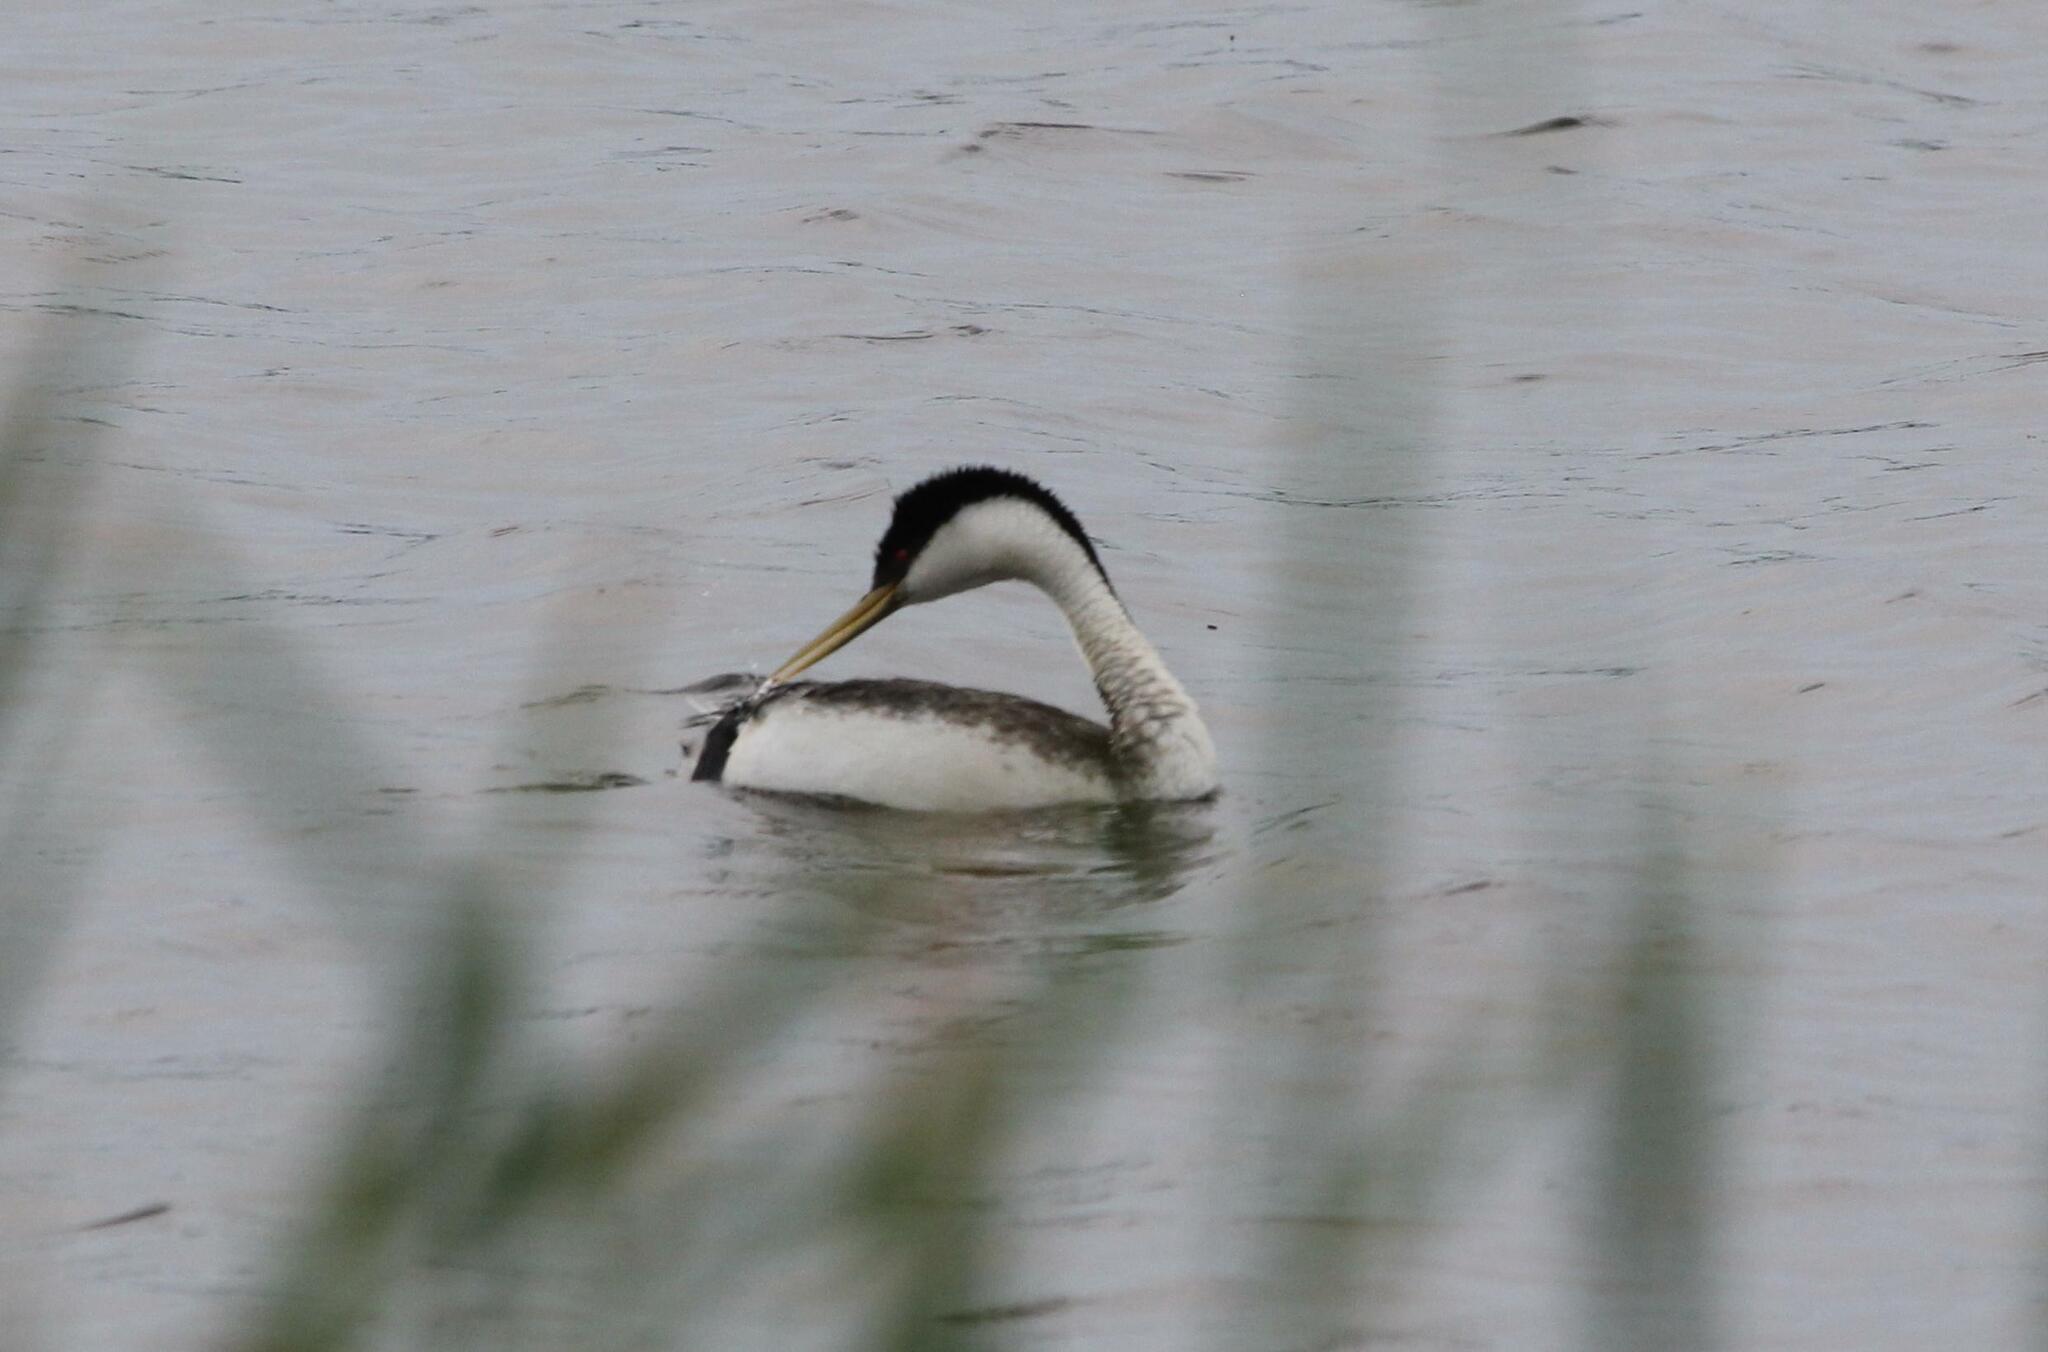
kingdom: Animalia
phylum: Chordata
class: Aves
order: Podicipediformes
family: Podicipedidae
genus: Aechmophorus
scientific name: Aechmophorus occidentalis
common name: Western grebe
